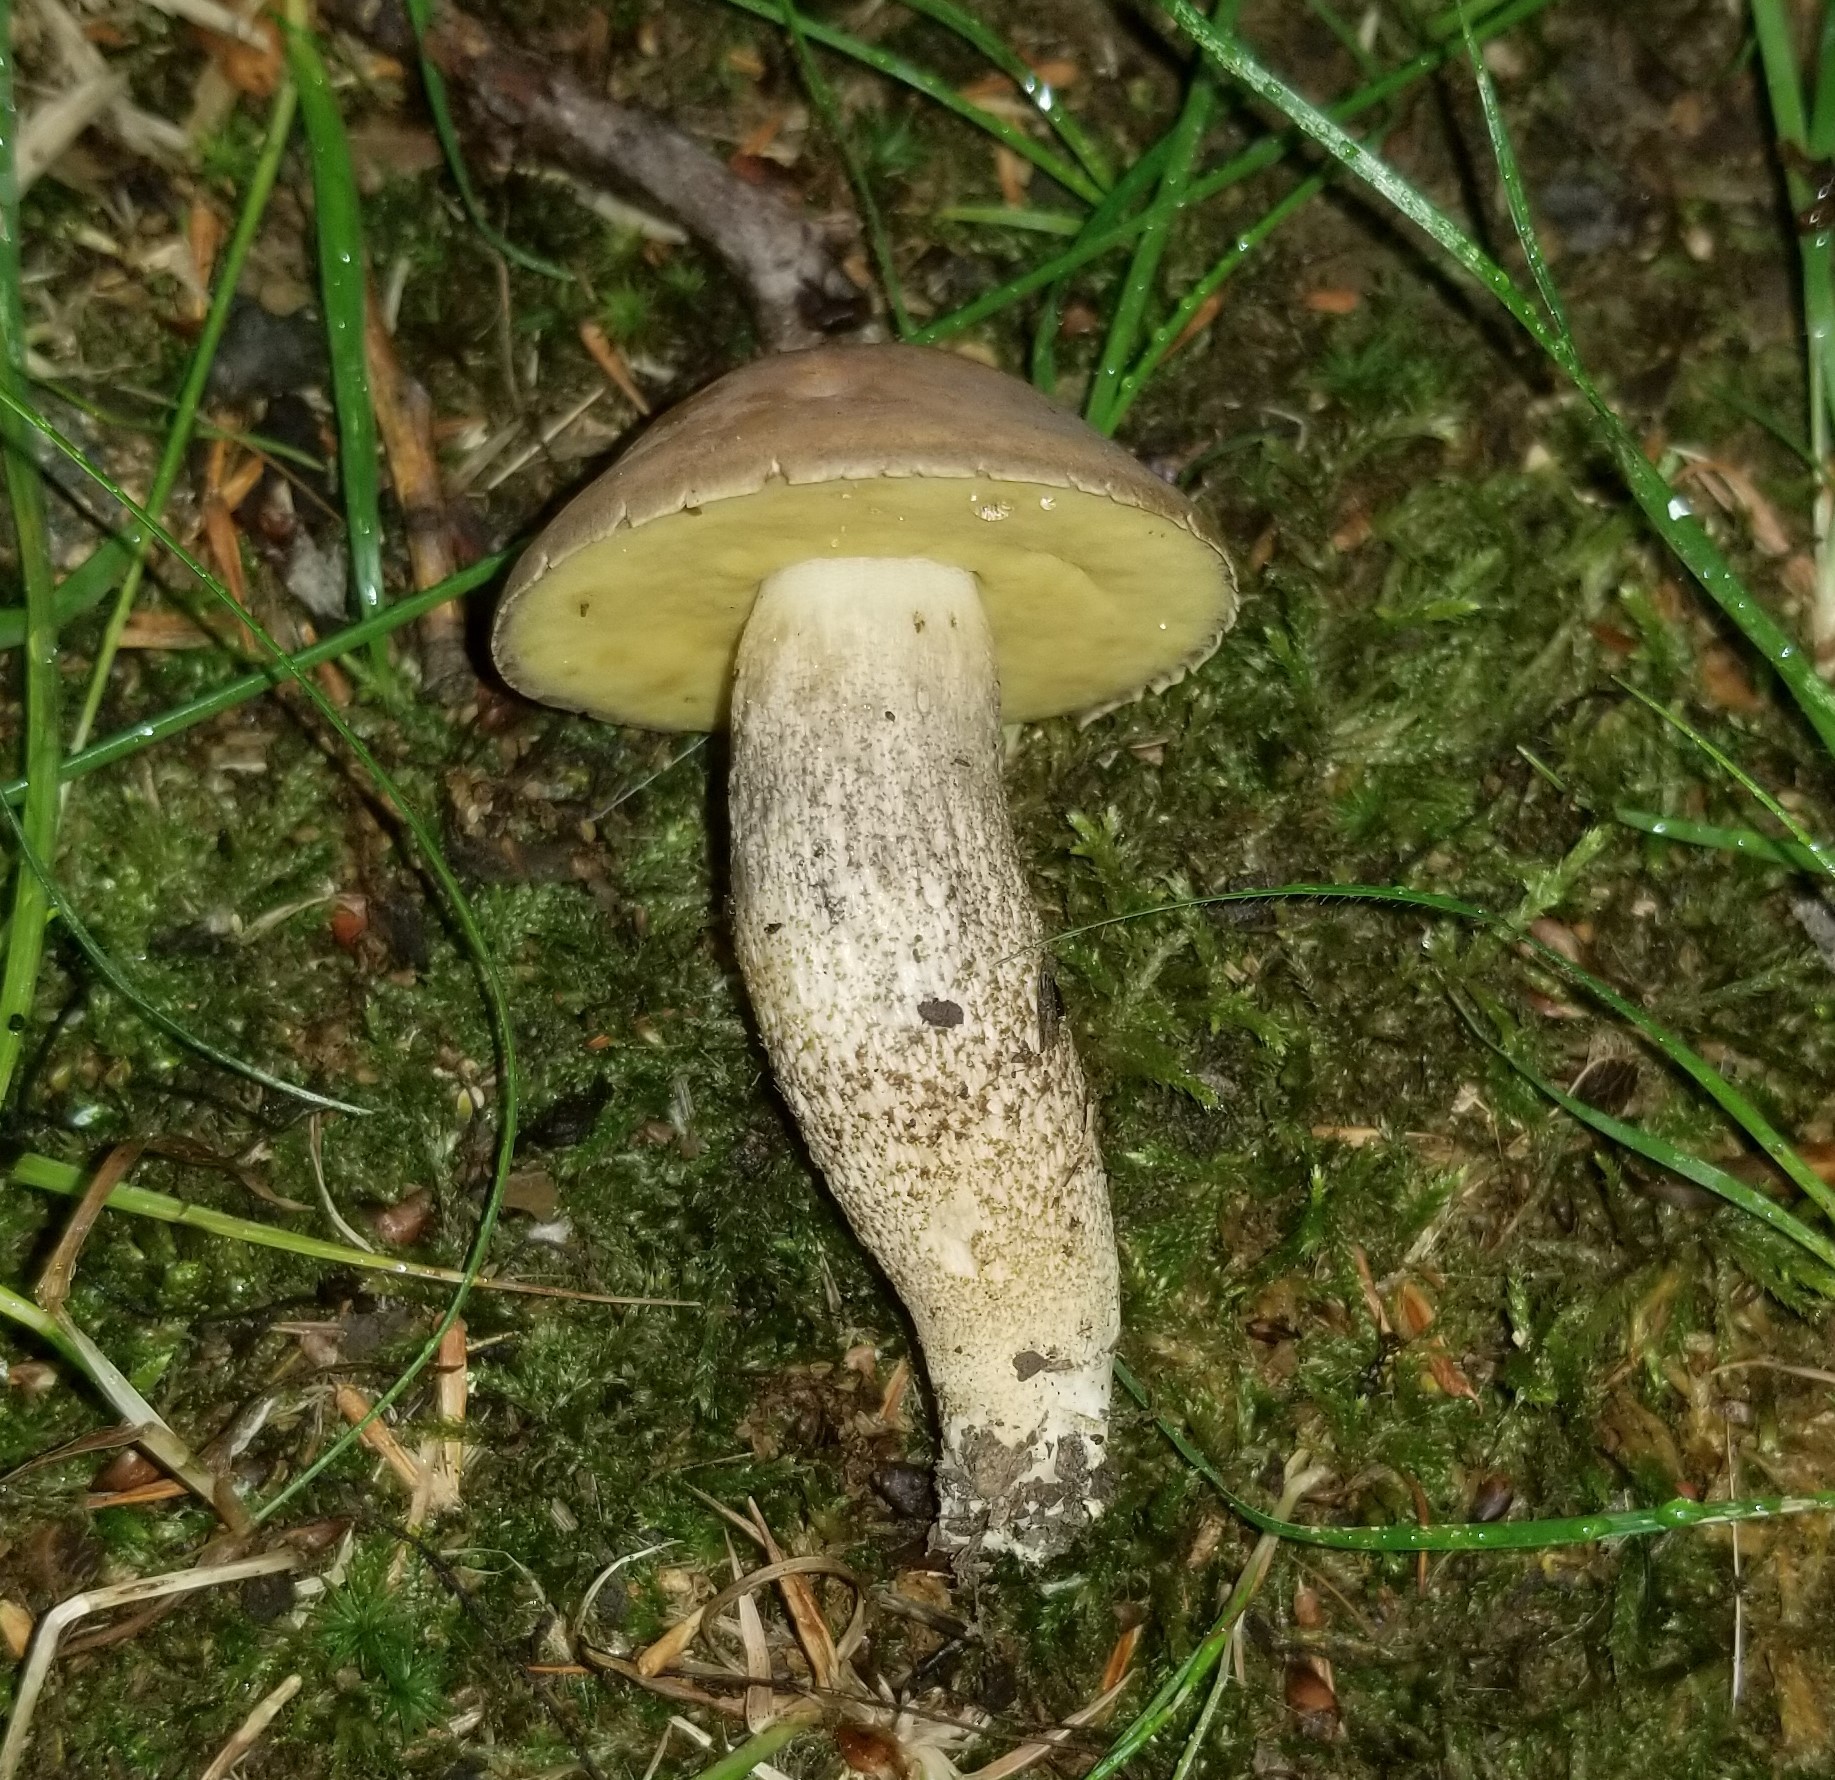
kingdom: Fungi
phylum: Basidiomycota
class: Agaricomycetes
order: Boletales
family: Boletaceae
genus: Leccinellum
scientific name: Leccinellum rugosiceps
